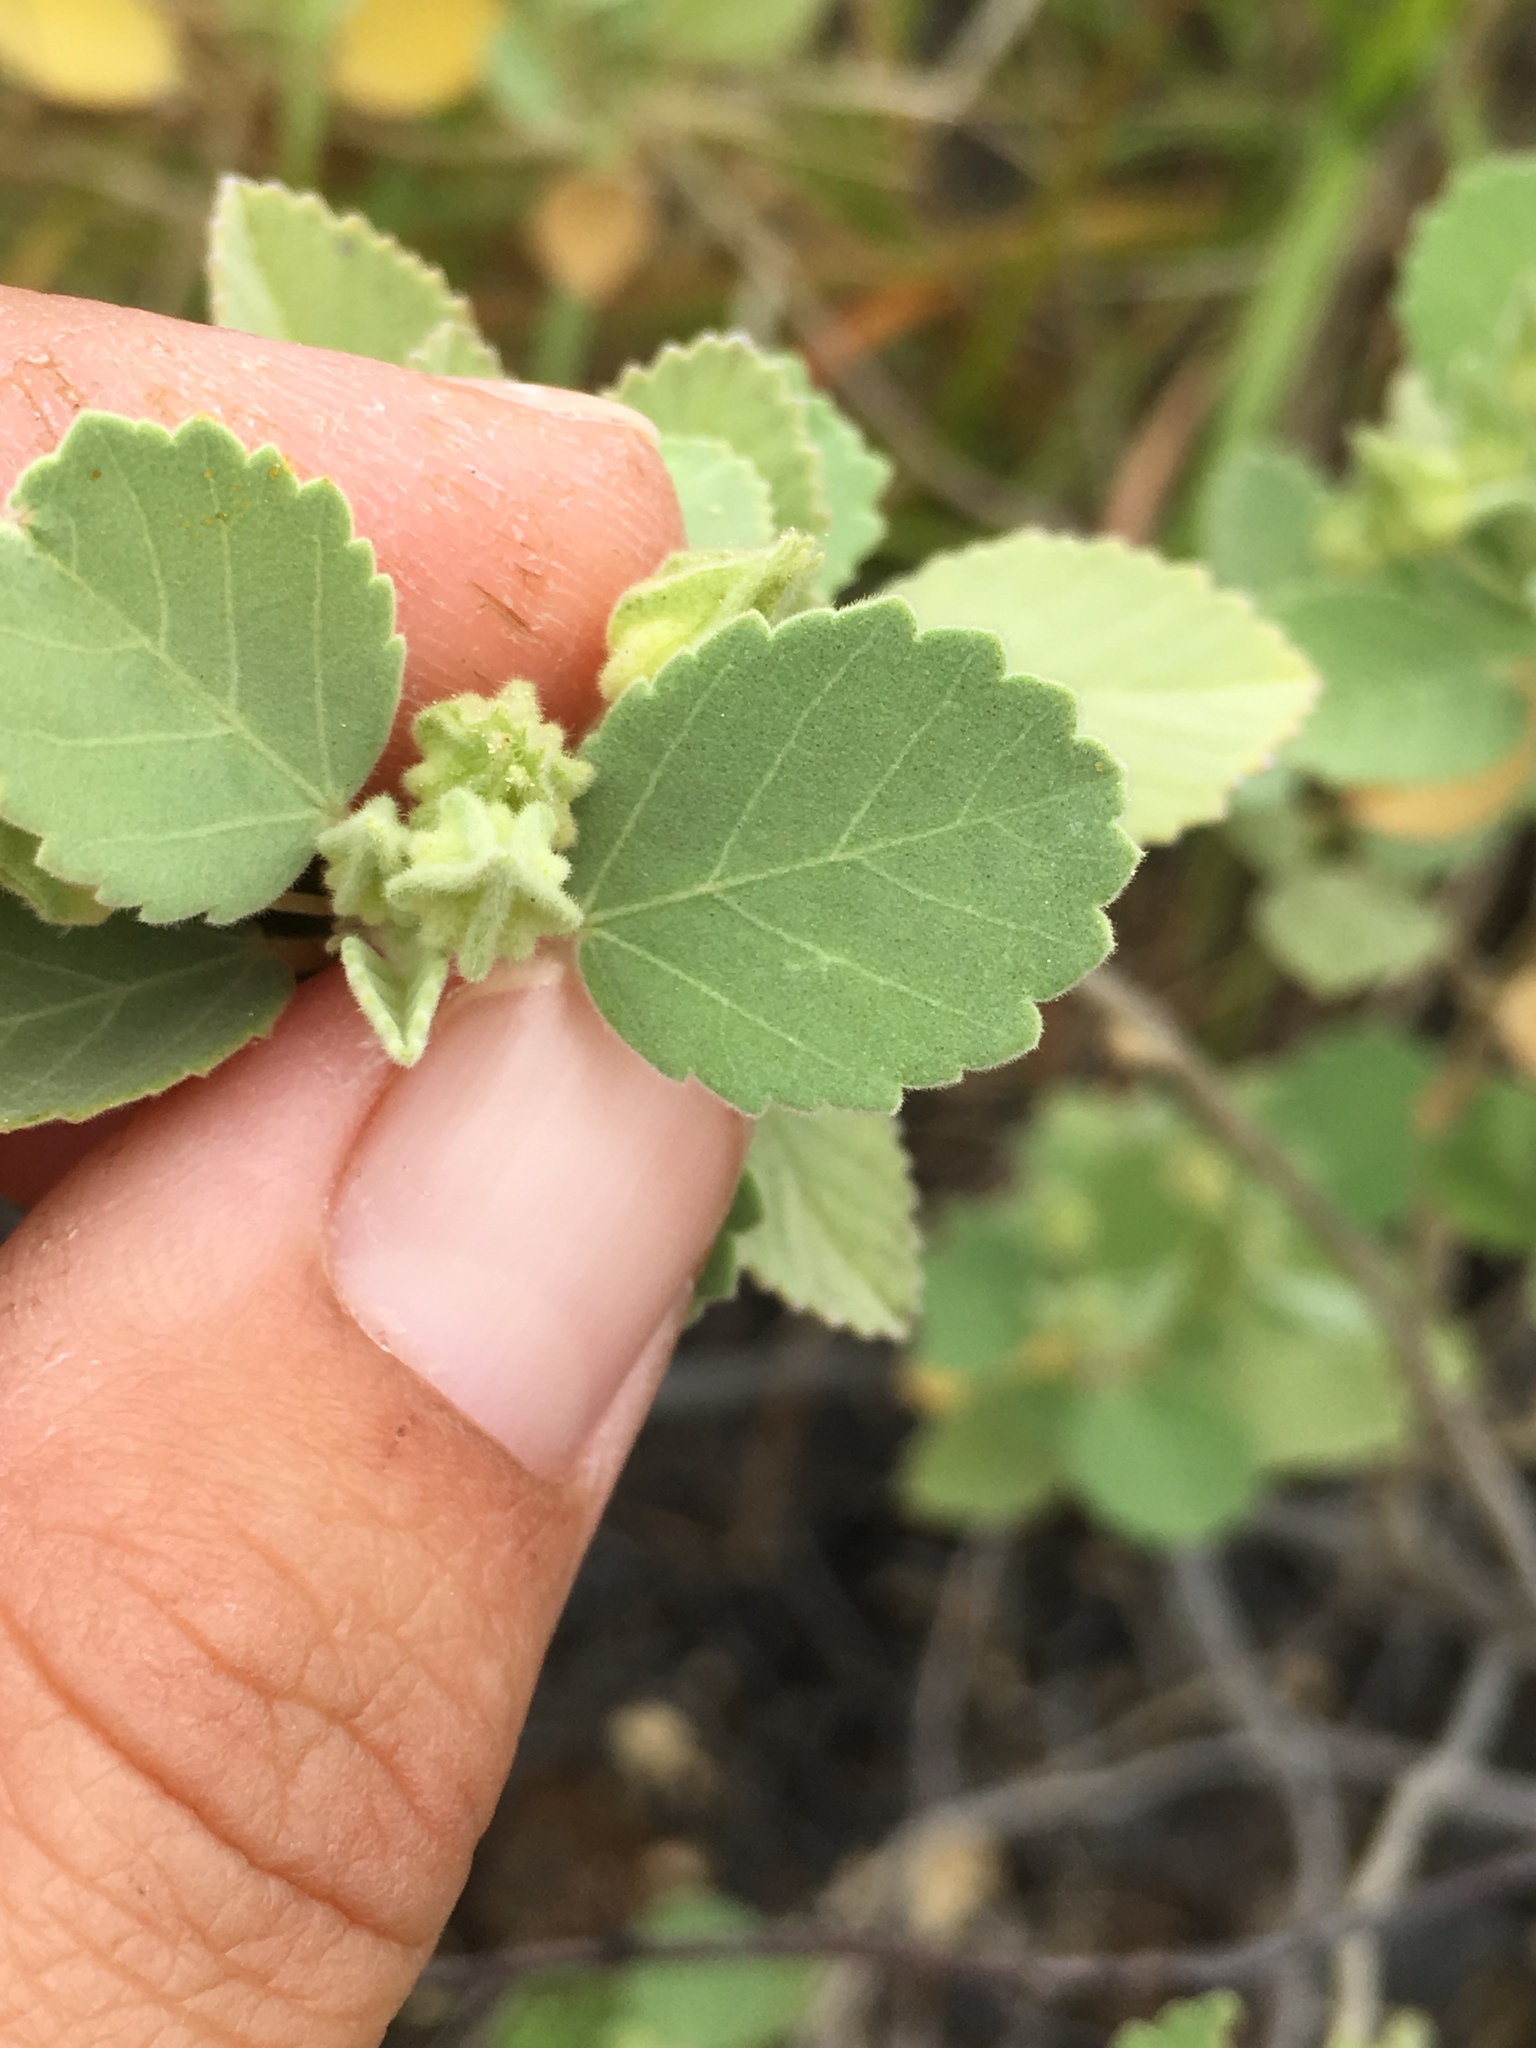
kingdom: Plantae
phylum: Tracheophyta
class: Magnoliopsida
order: Malvales
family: Malvaceae
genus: Sida
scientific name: Sida fallax
